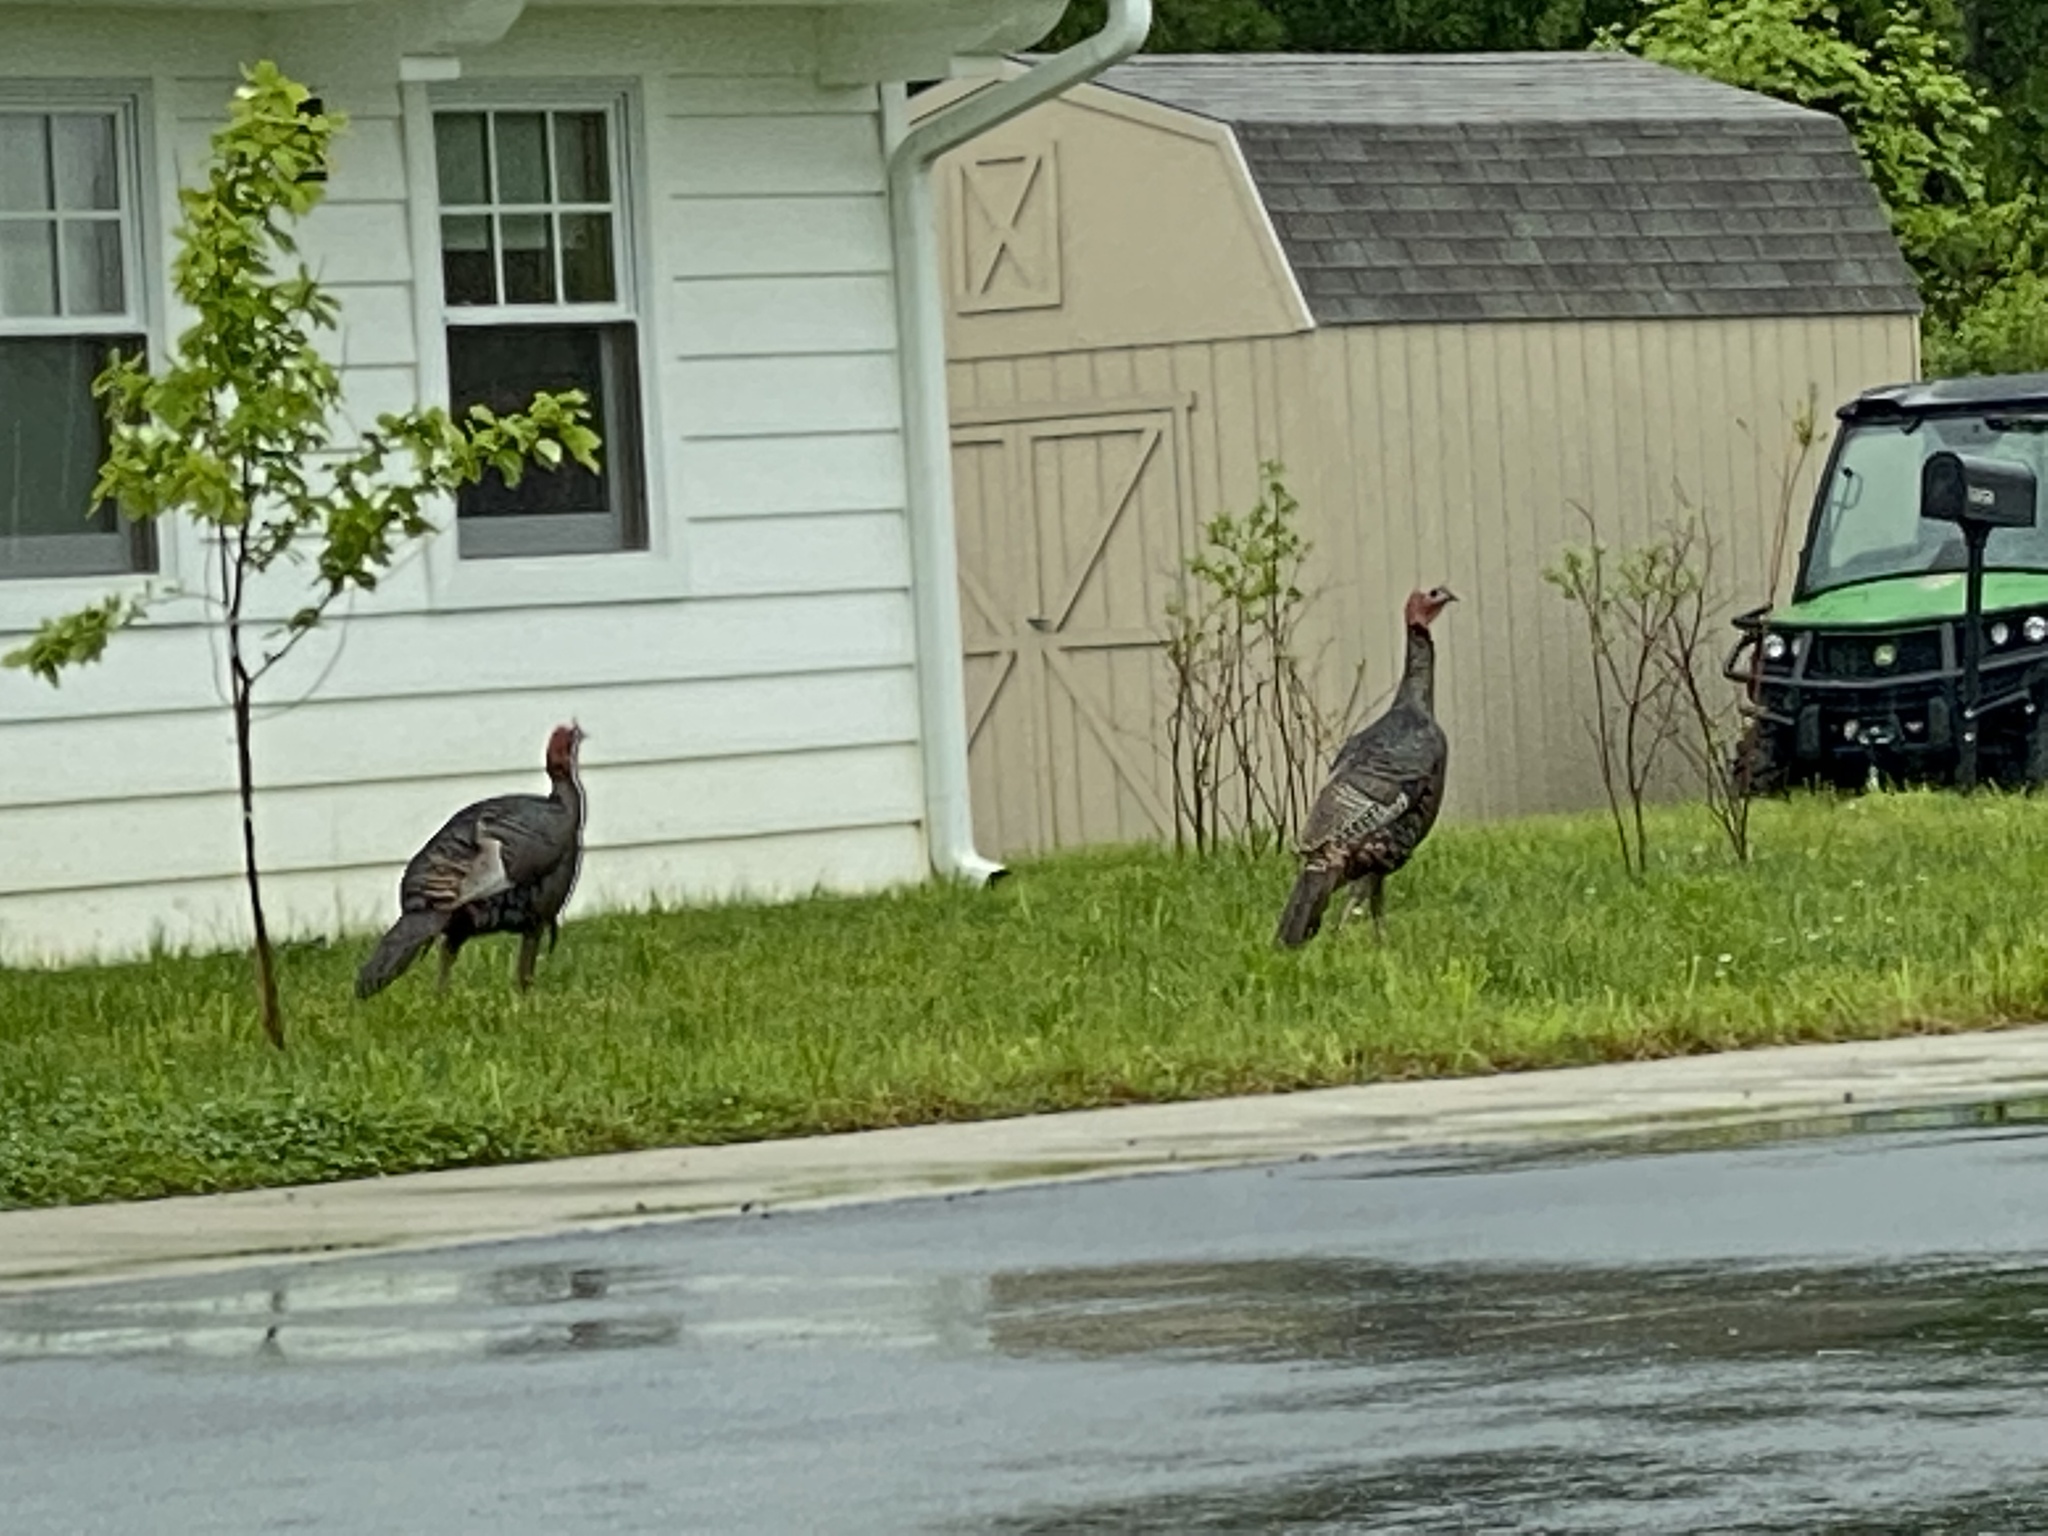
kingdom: Animalia
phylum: Chordata
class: Aves
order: Galliformes
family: Phasianidae
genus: Meleagris
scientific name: Meleagris gallopavo
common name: Wild turkey
